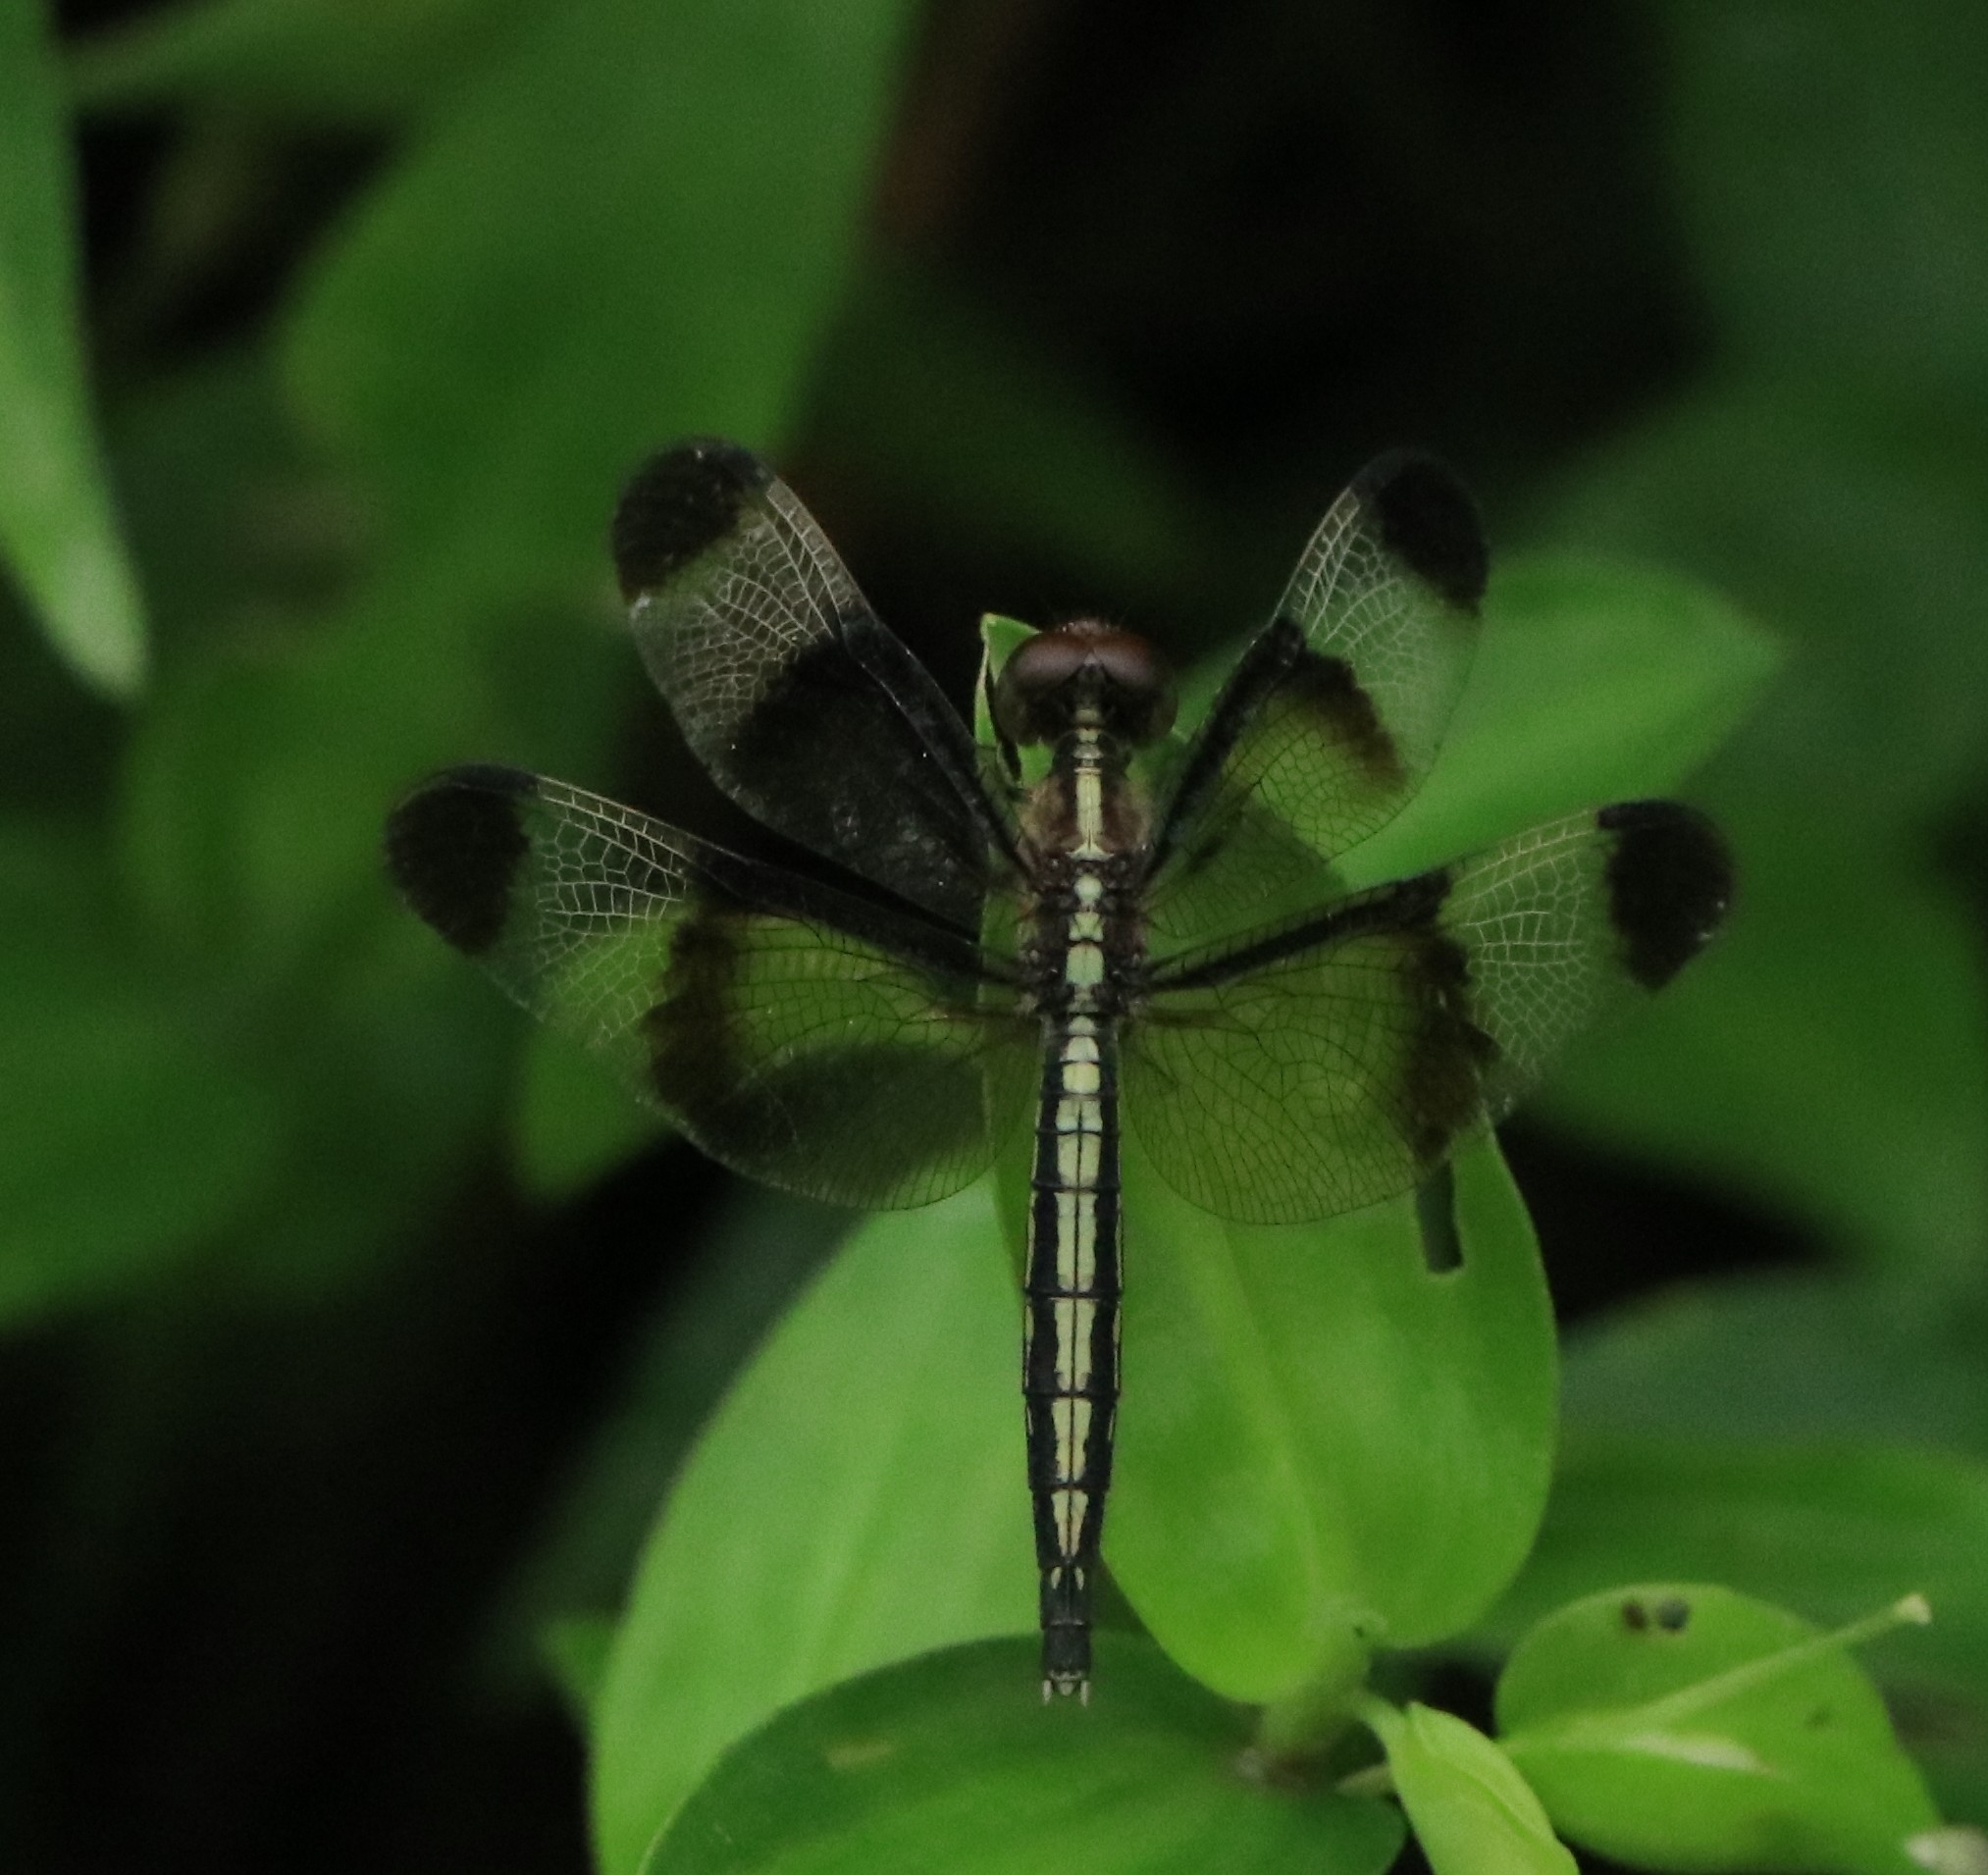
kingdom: Animalia
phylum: Arthropoda
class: Insecta
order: Odonata
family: Libellulidae
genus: Neurothemis
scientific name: Neurothemis tullia
